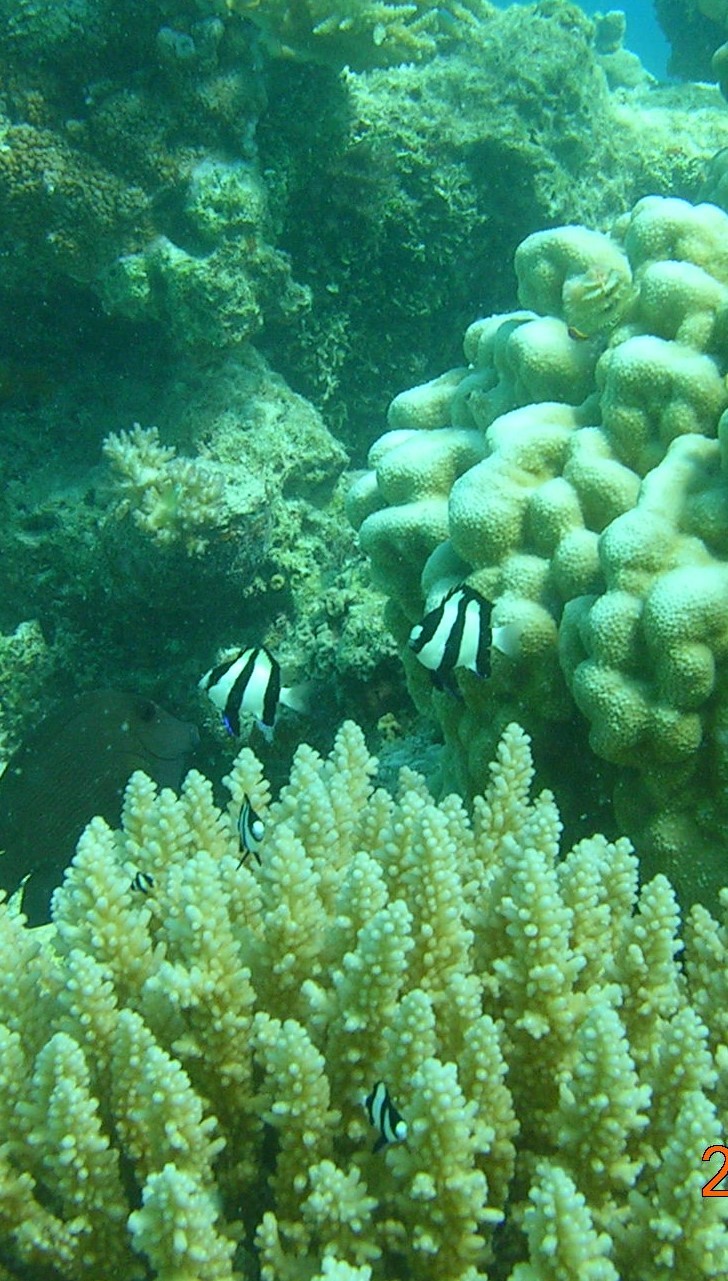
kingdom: Animalia
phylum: Chordata
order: Perciformes
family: Pomacentridae
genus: Dascyllus
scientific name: Dascyllus aruanus
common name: Humbug dascyllus
